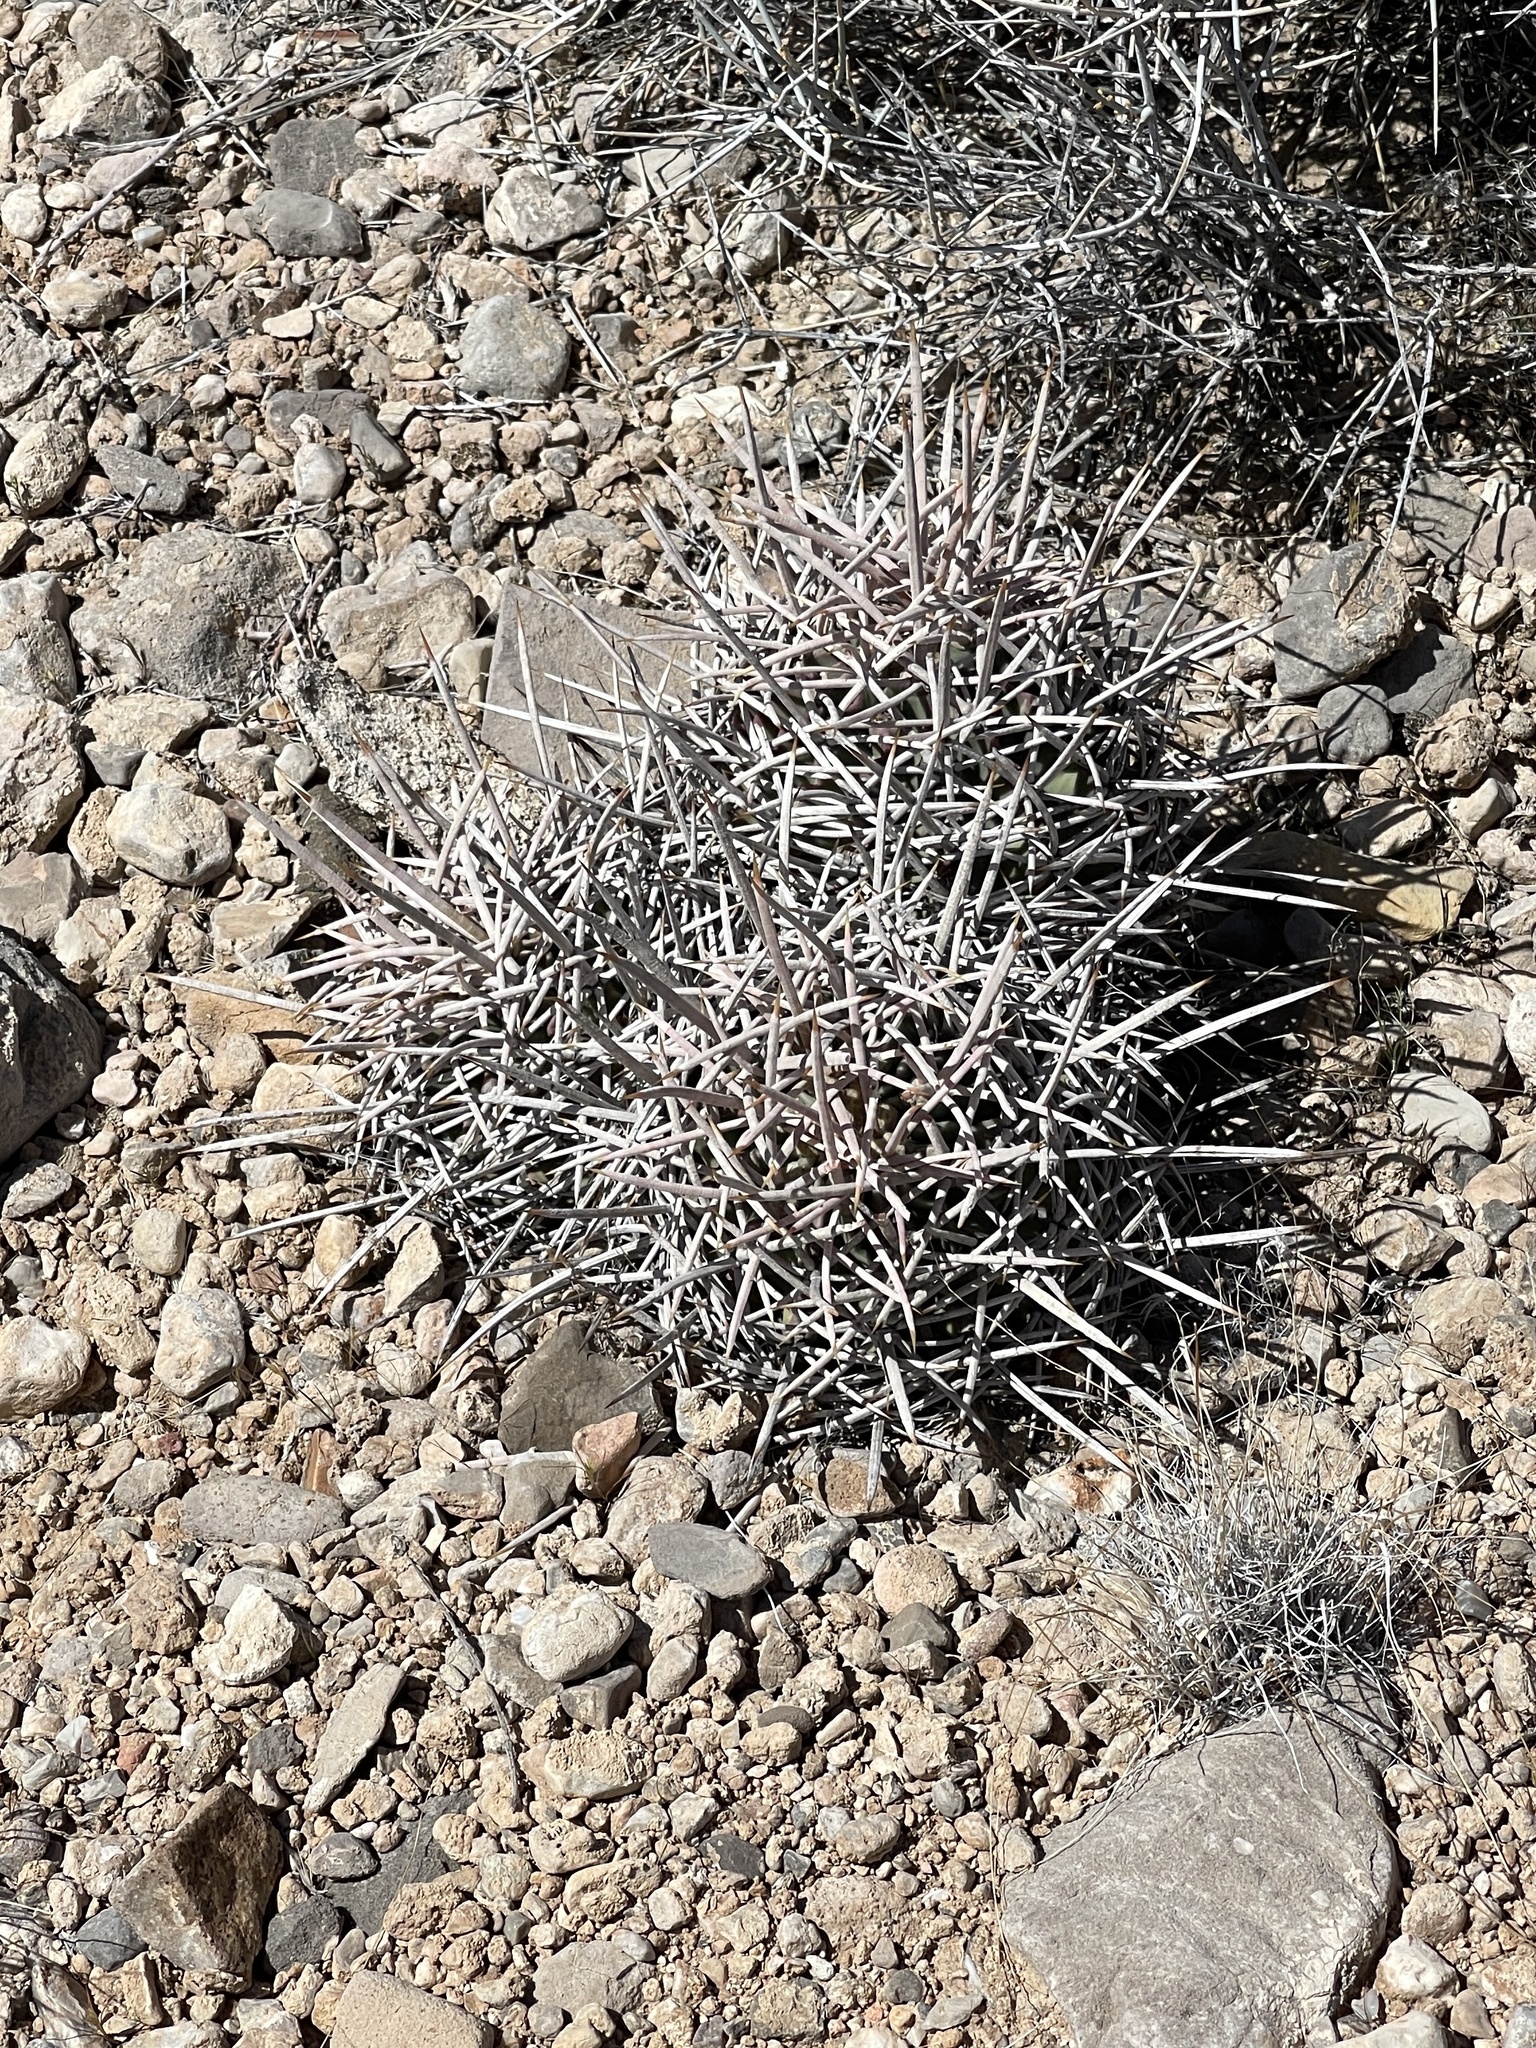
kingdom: Plantae
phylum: Tracheophyta
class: Magnoliopsida
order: Caryophyllales
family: Cactaceae
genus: Echinocactus
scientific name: Echinocactus polycephalus
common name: Cottontop cactus
